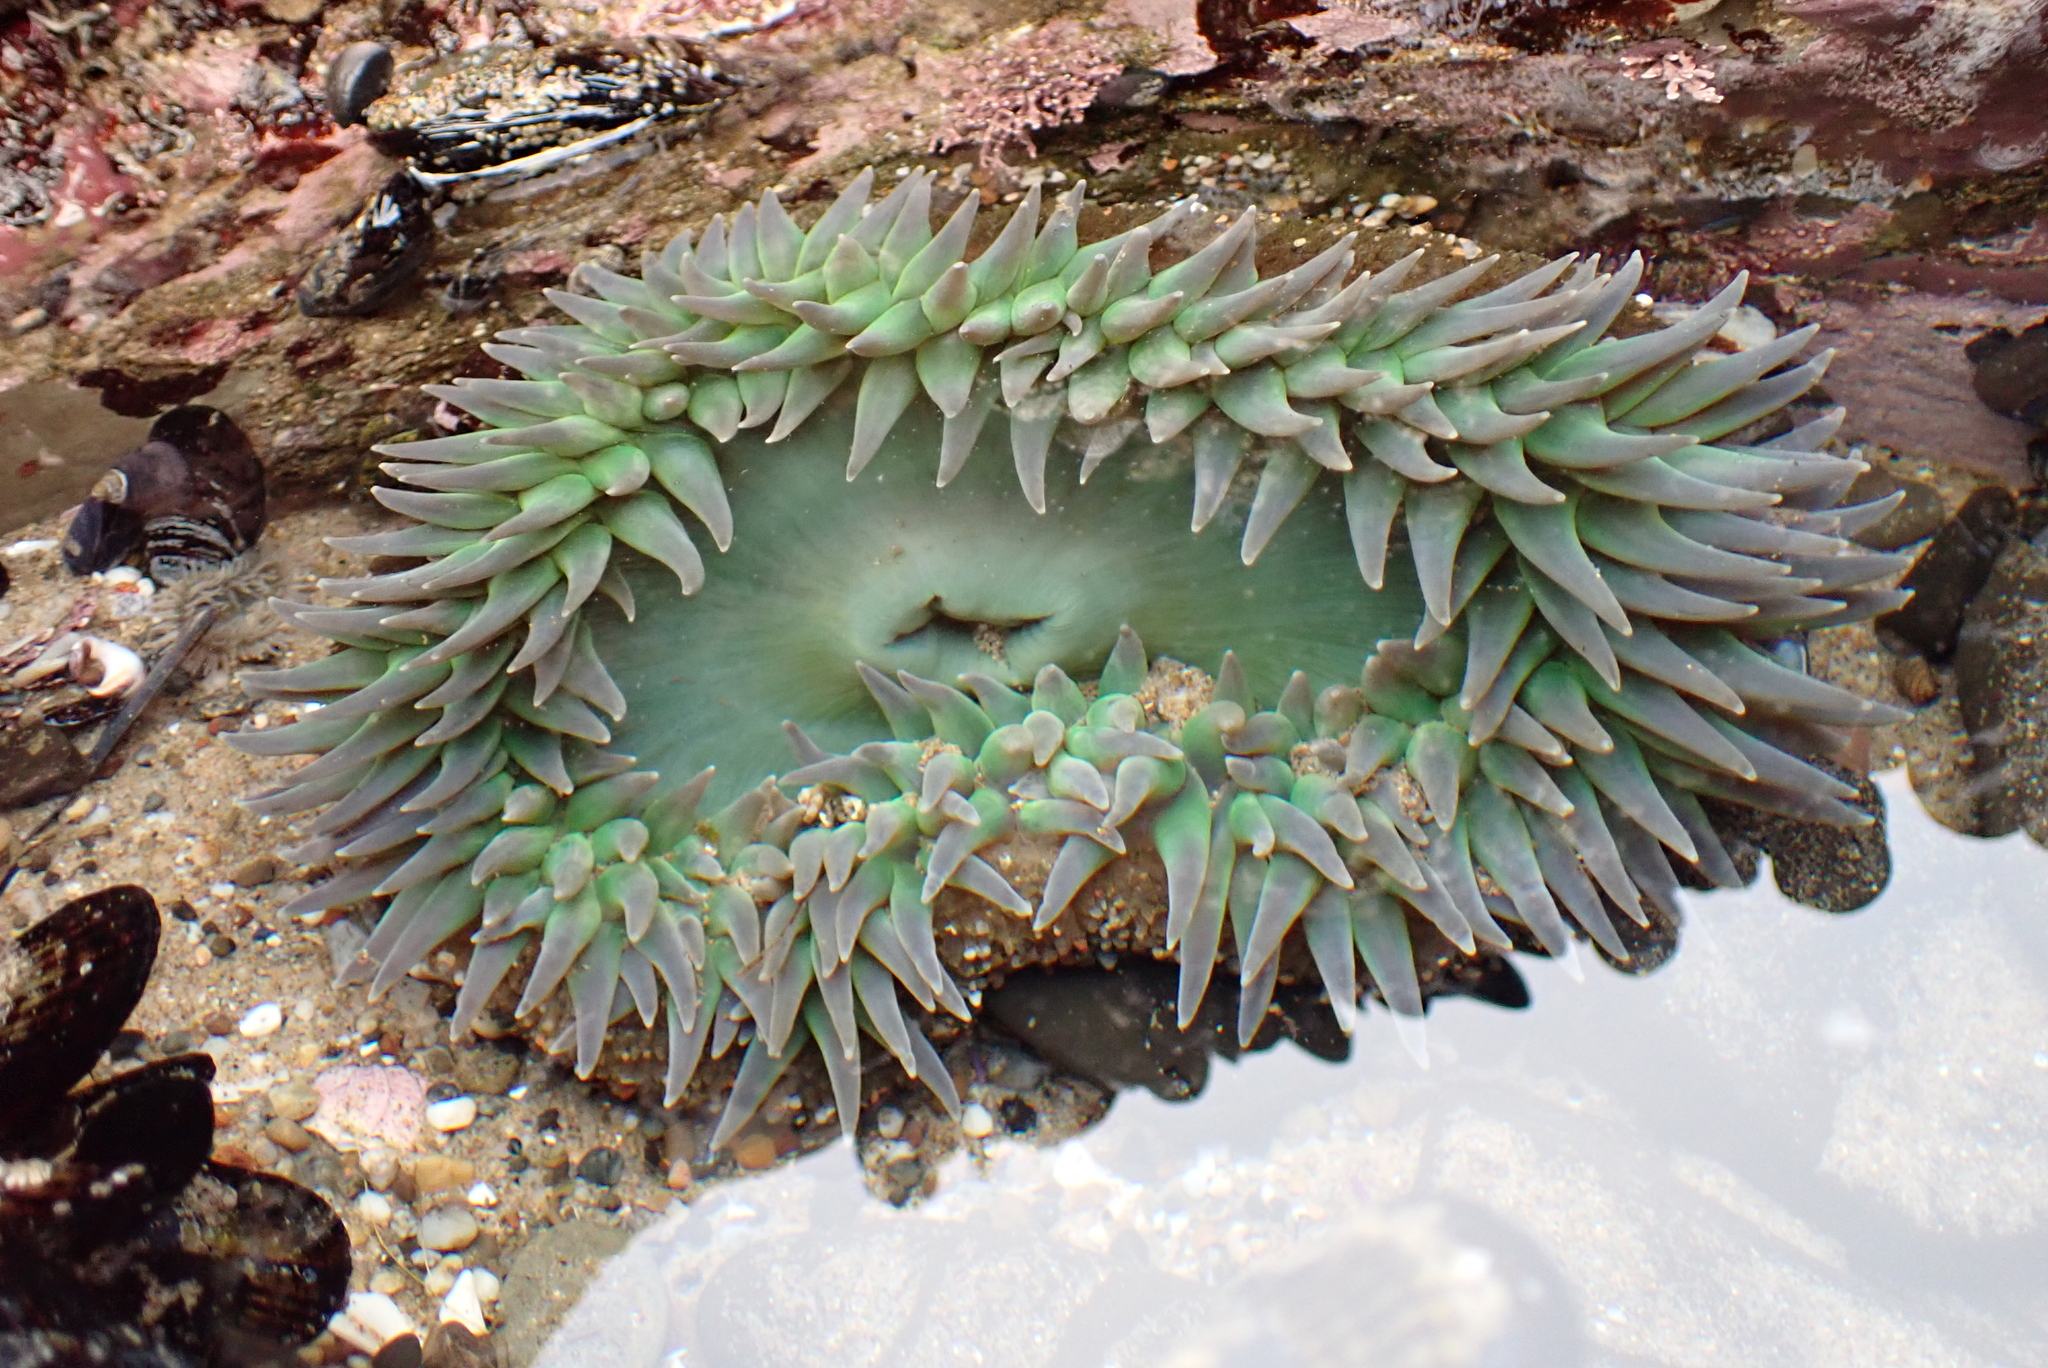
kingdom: Animalia
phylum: Cnidaria
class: Anthozoa
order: Actiniaria
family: Actiniidae
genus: Anthopleura
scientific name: Anthopleura xanthogrammica
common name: Giant green anemone
